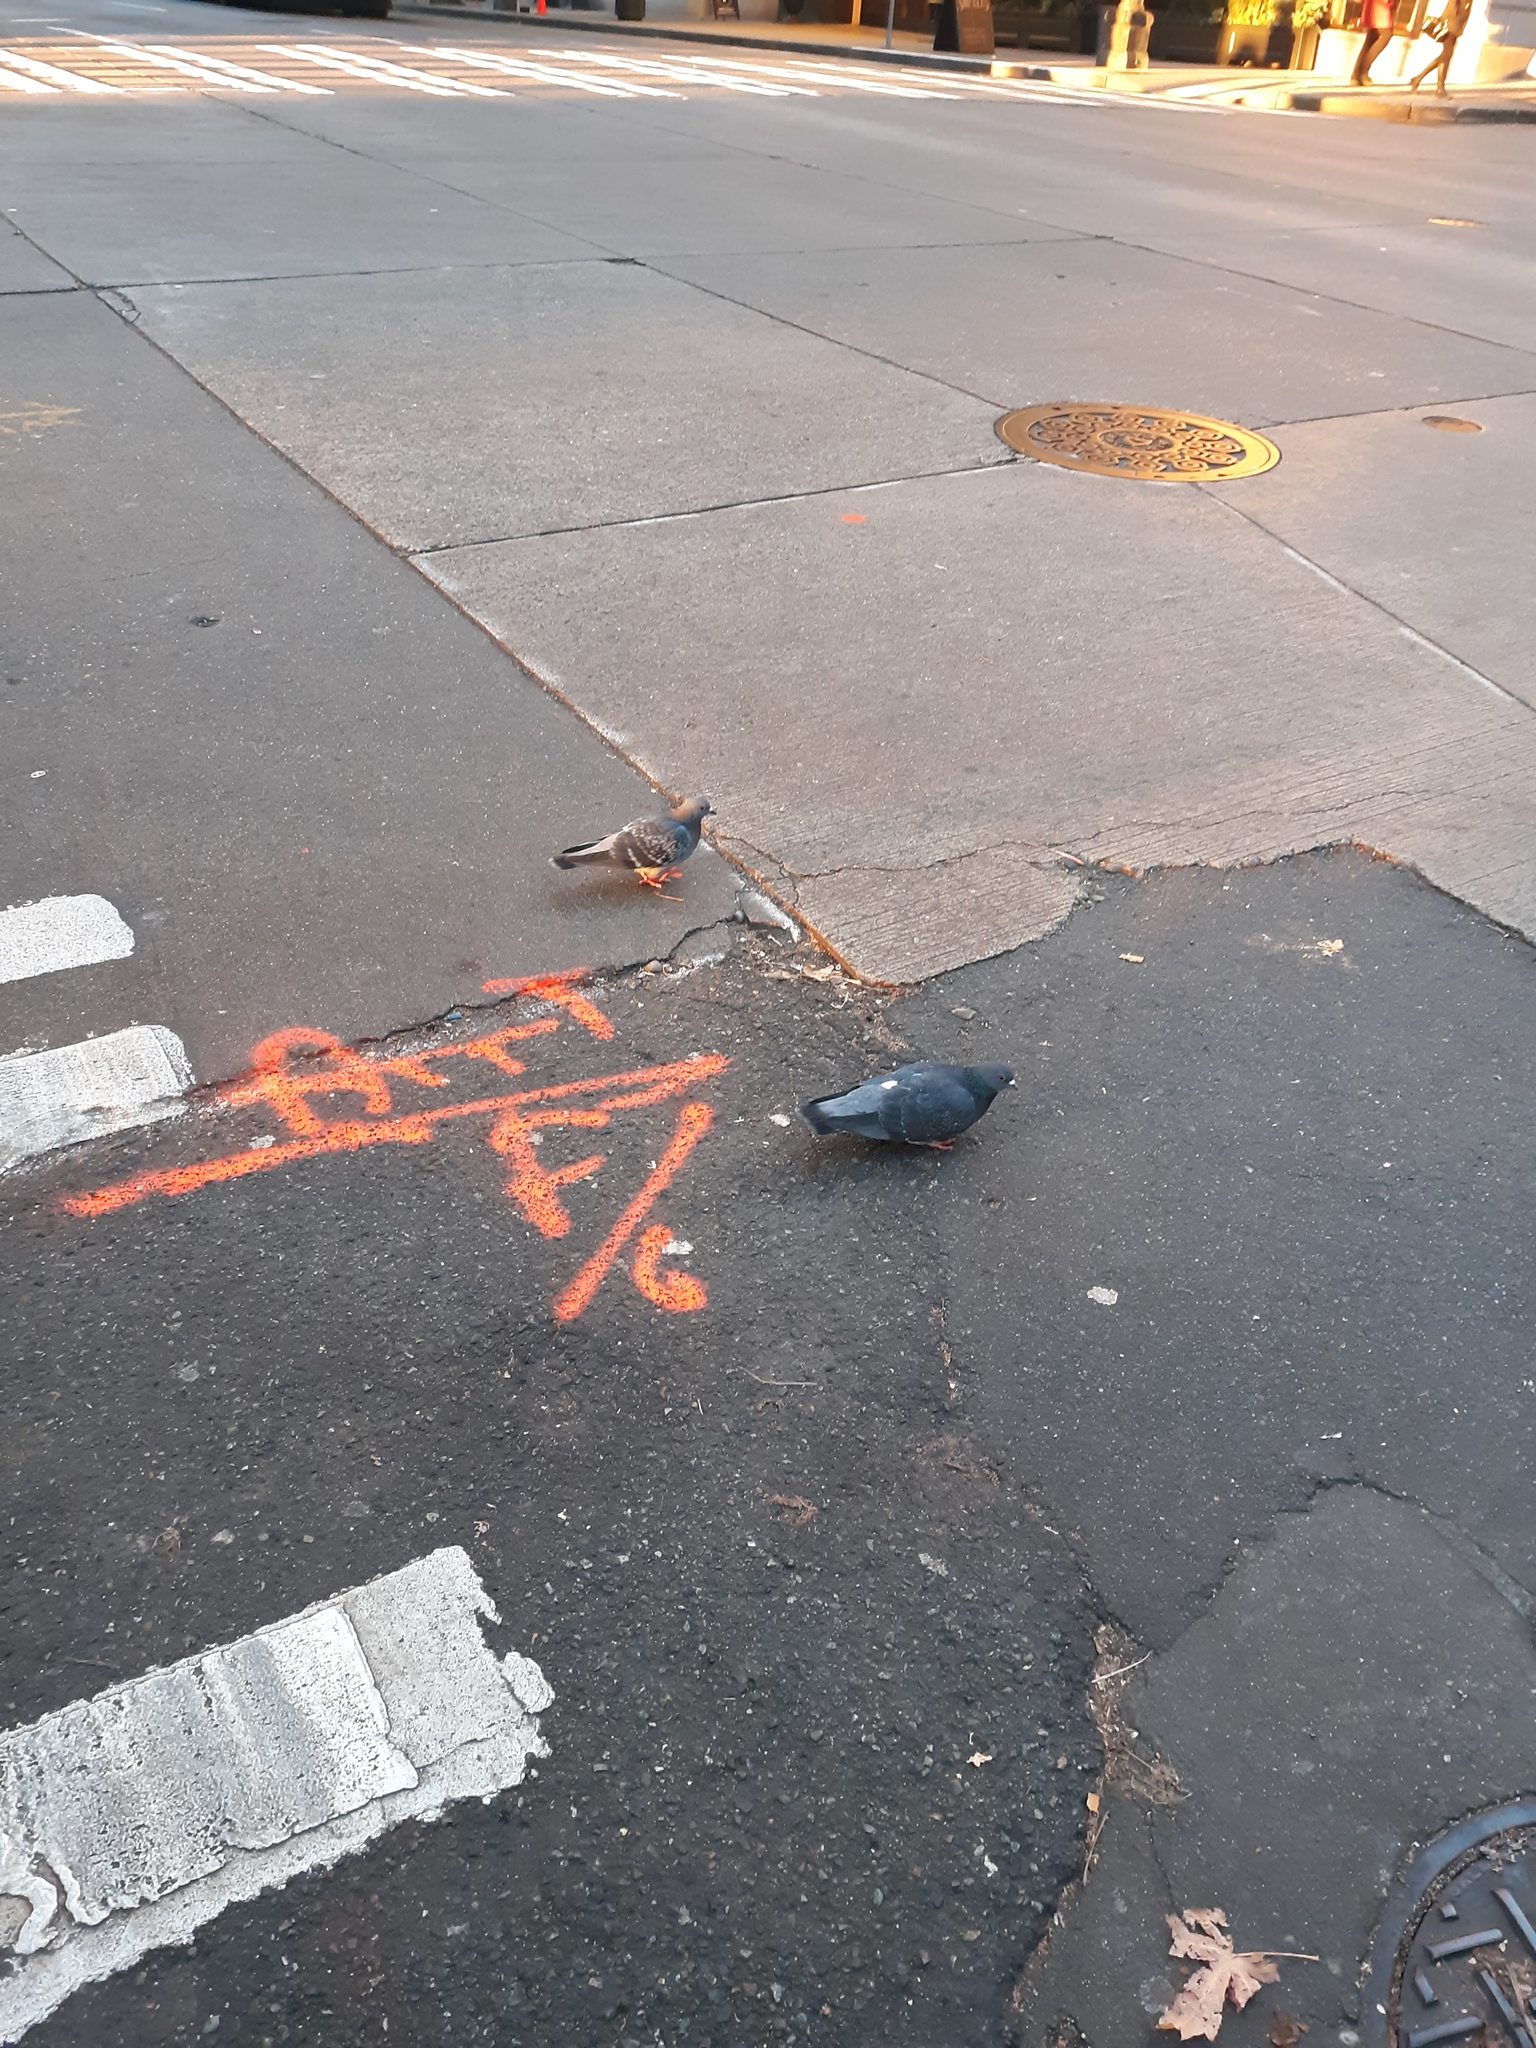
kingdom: Animalia
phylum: Chordata
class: Aves
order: Columbiformes
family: Columbidae
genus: Columba
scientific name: Columba livia
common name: Rock pigeon
